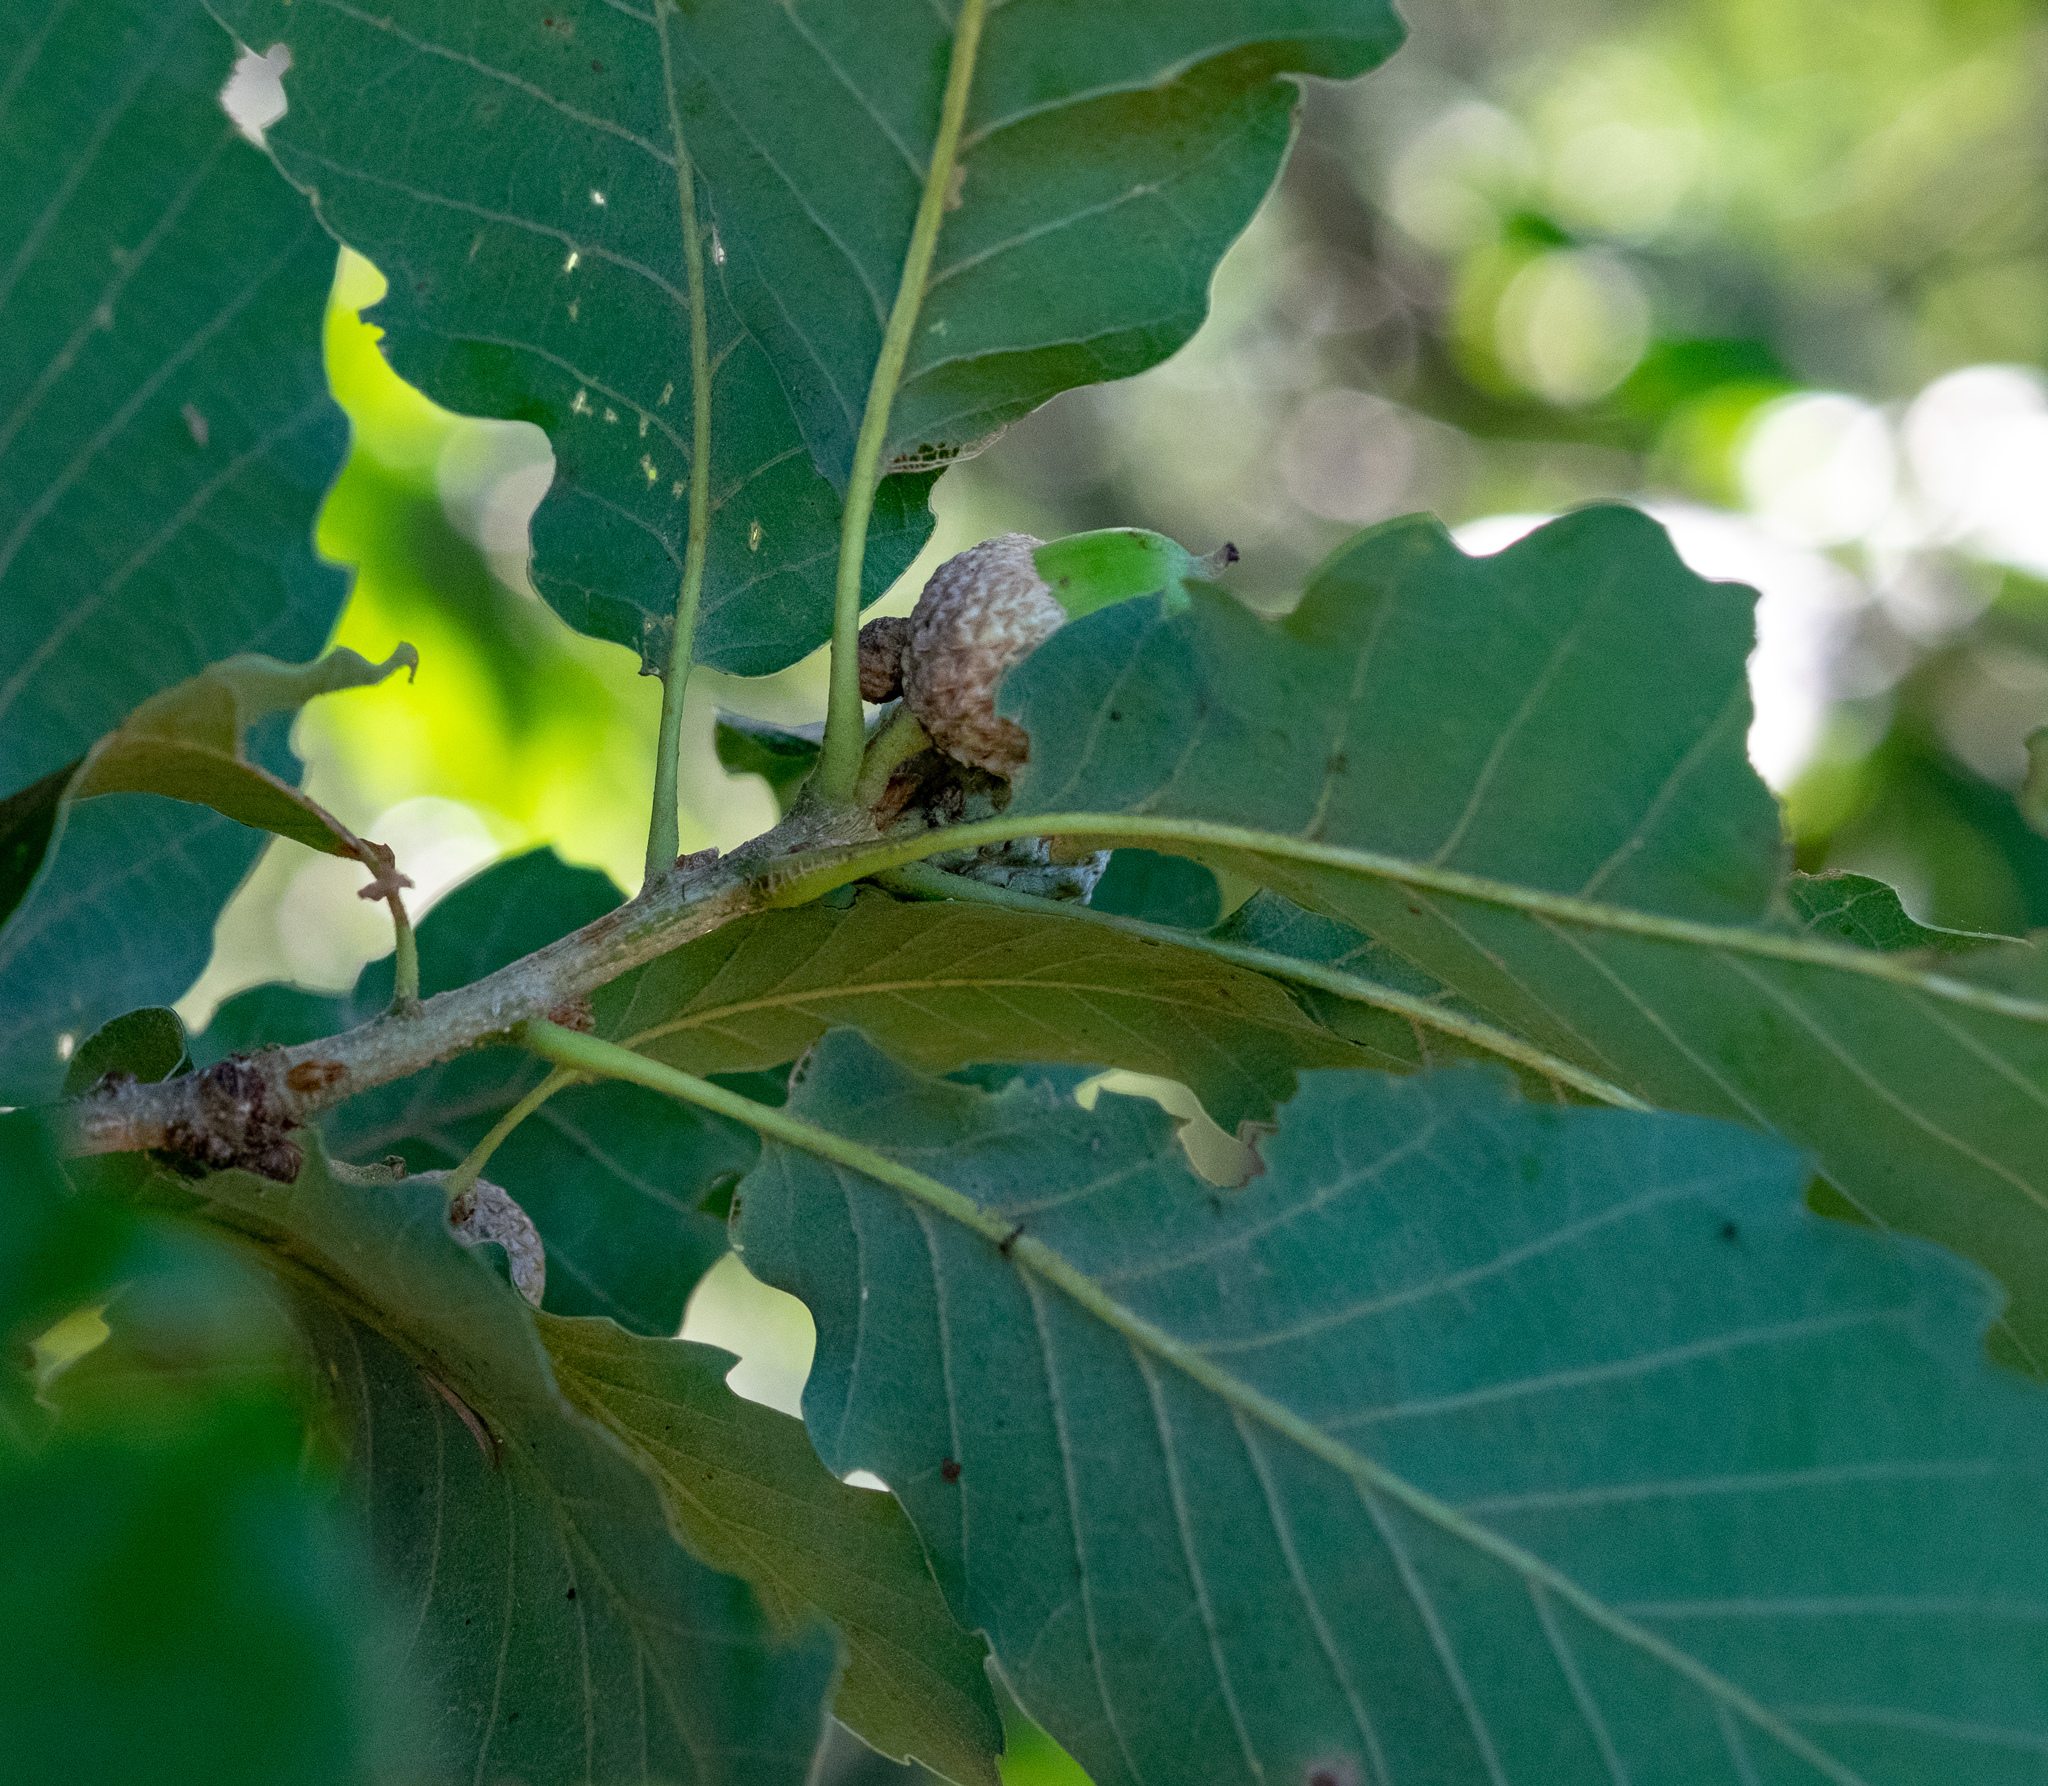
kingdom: Plantae
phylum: Tracheophyta
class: Magnoliopsida
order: Fagales
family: Fagaceae
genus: Quercus
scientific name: Quercus canariensis
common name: Algerian oak
